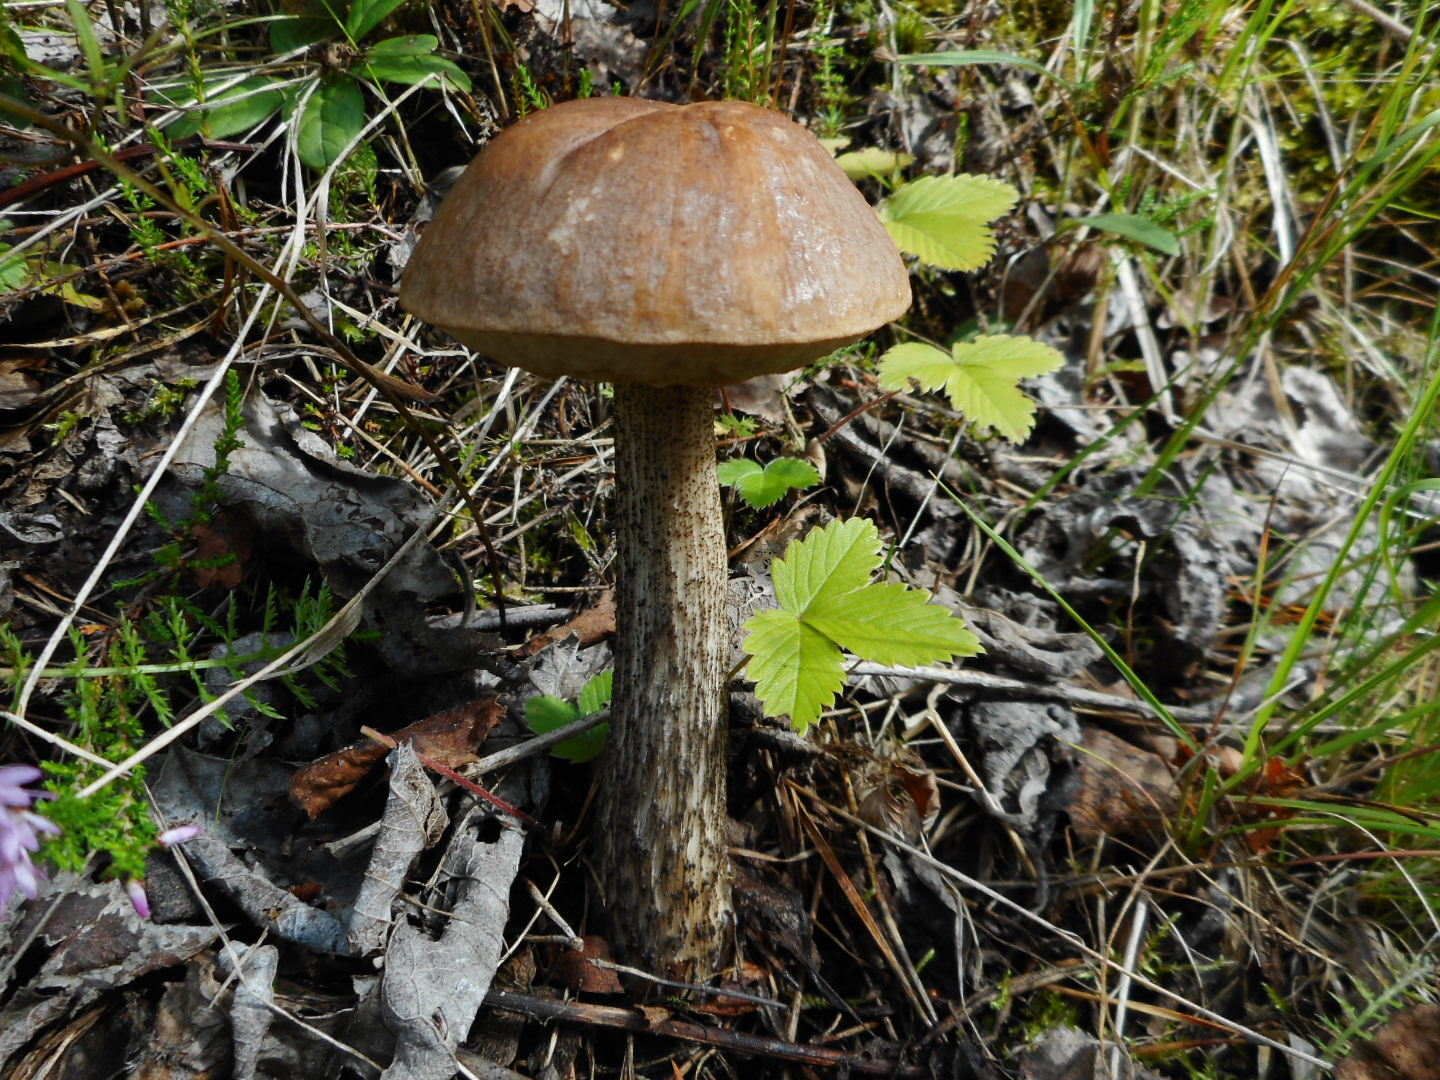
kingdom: Fungi
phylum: Basidiomycota
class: Agaricomycetes
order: Boletales
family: Boletaceae
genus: Leccinum
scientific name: Leccinum scabrum
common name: Blushing bolete
